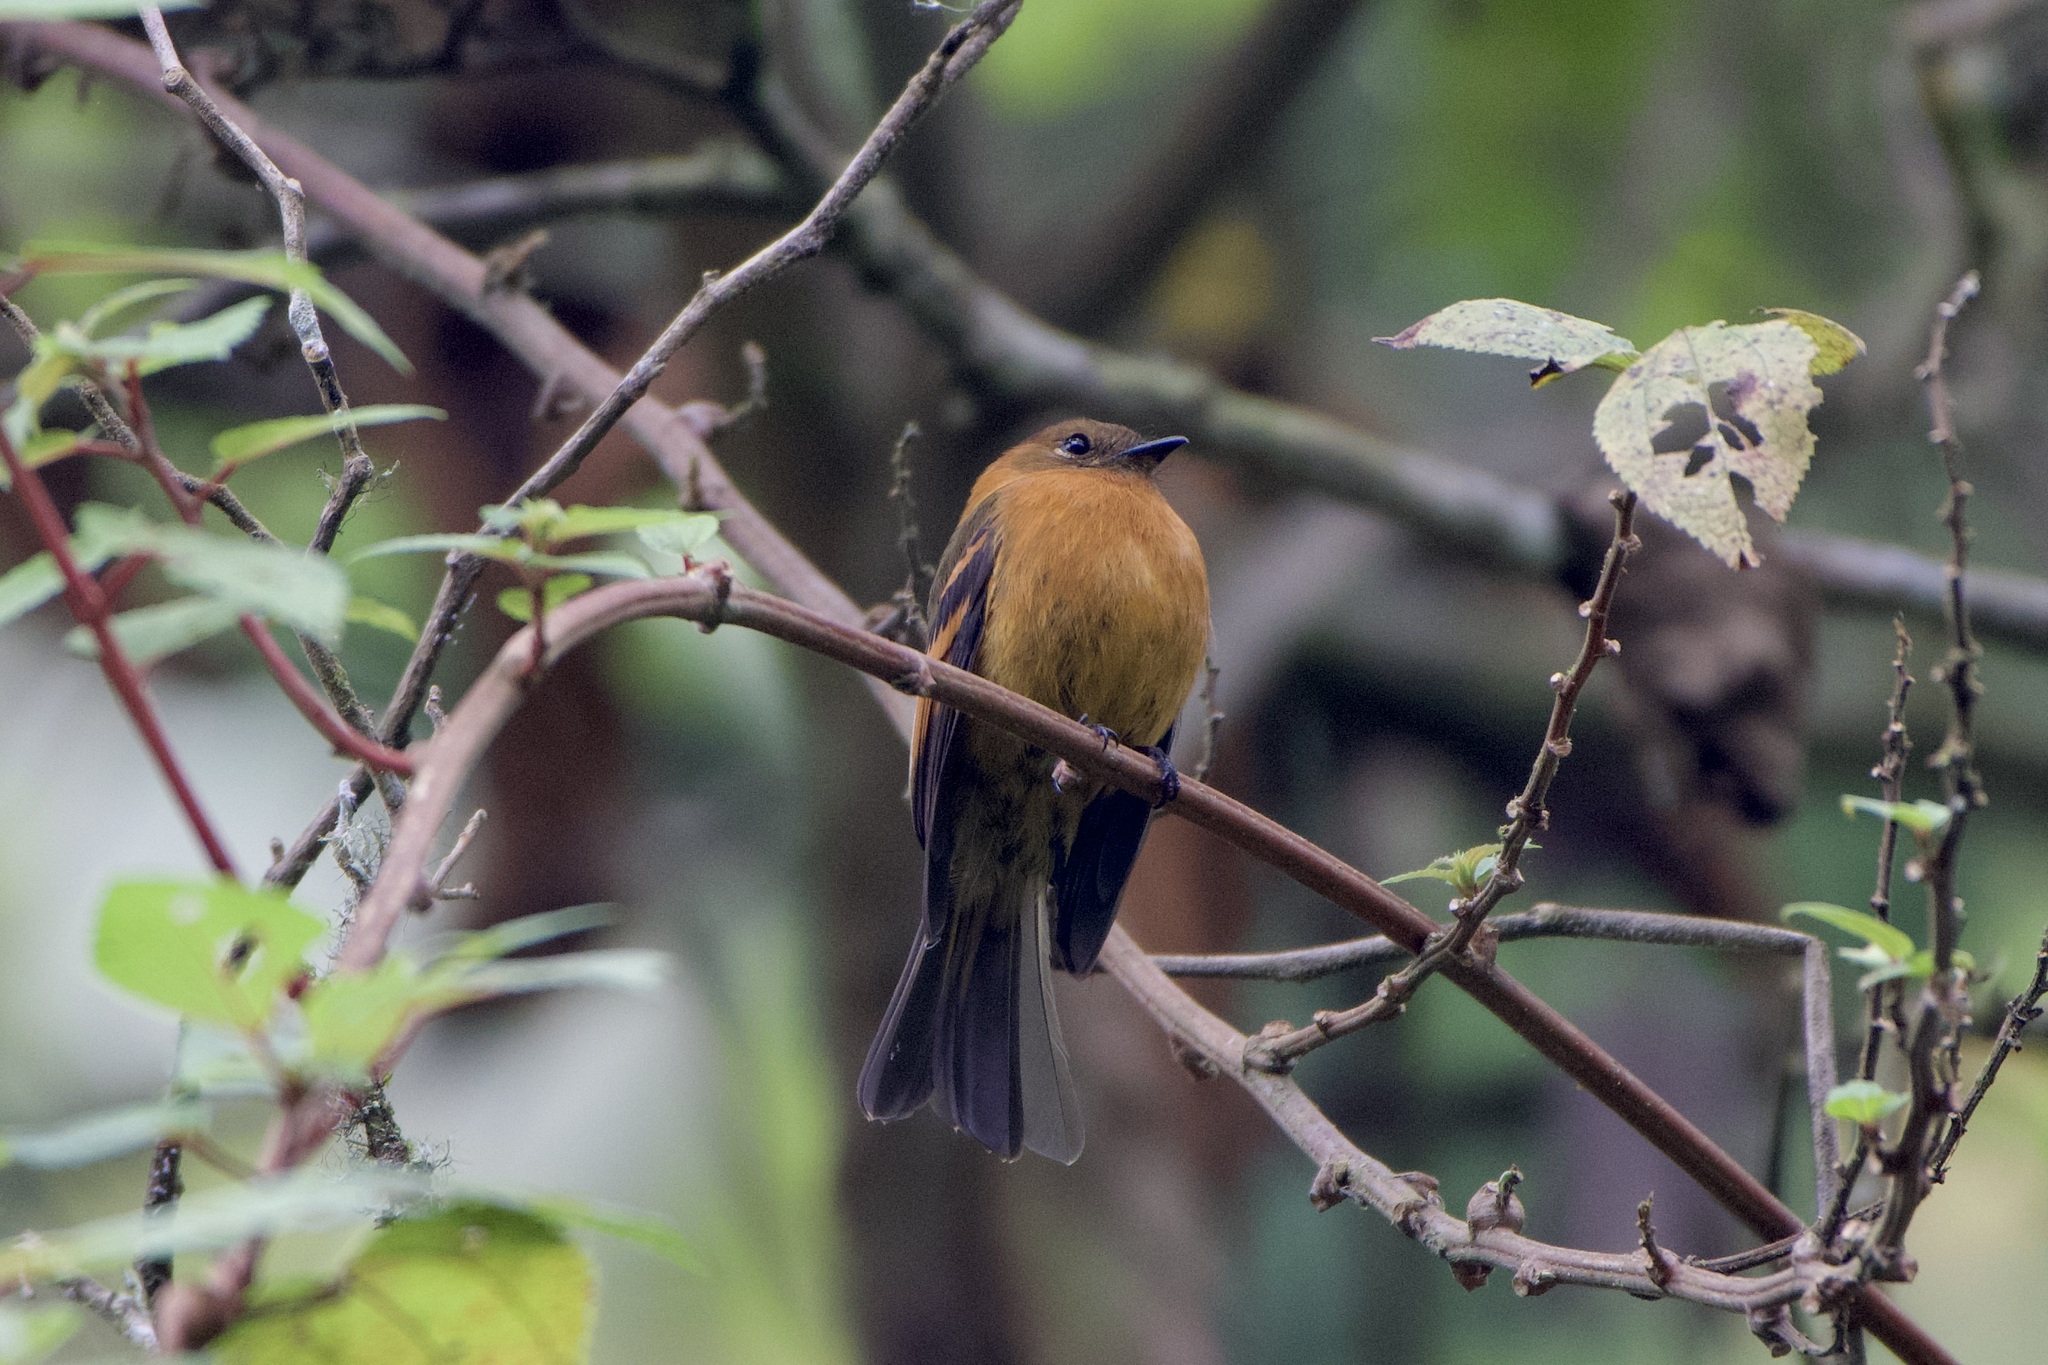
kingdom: Animalia
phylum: Chordata
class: Aves
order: Passeriformes
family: Tyrannidae
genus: Pyrrhomyias
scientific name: Pyrrhomyias cinnamomeus
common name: Cinnamon flycatcher
